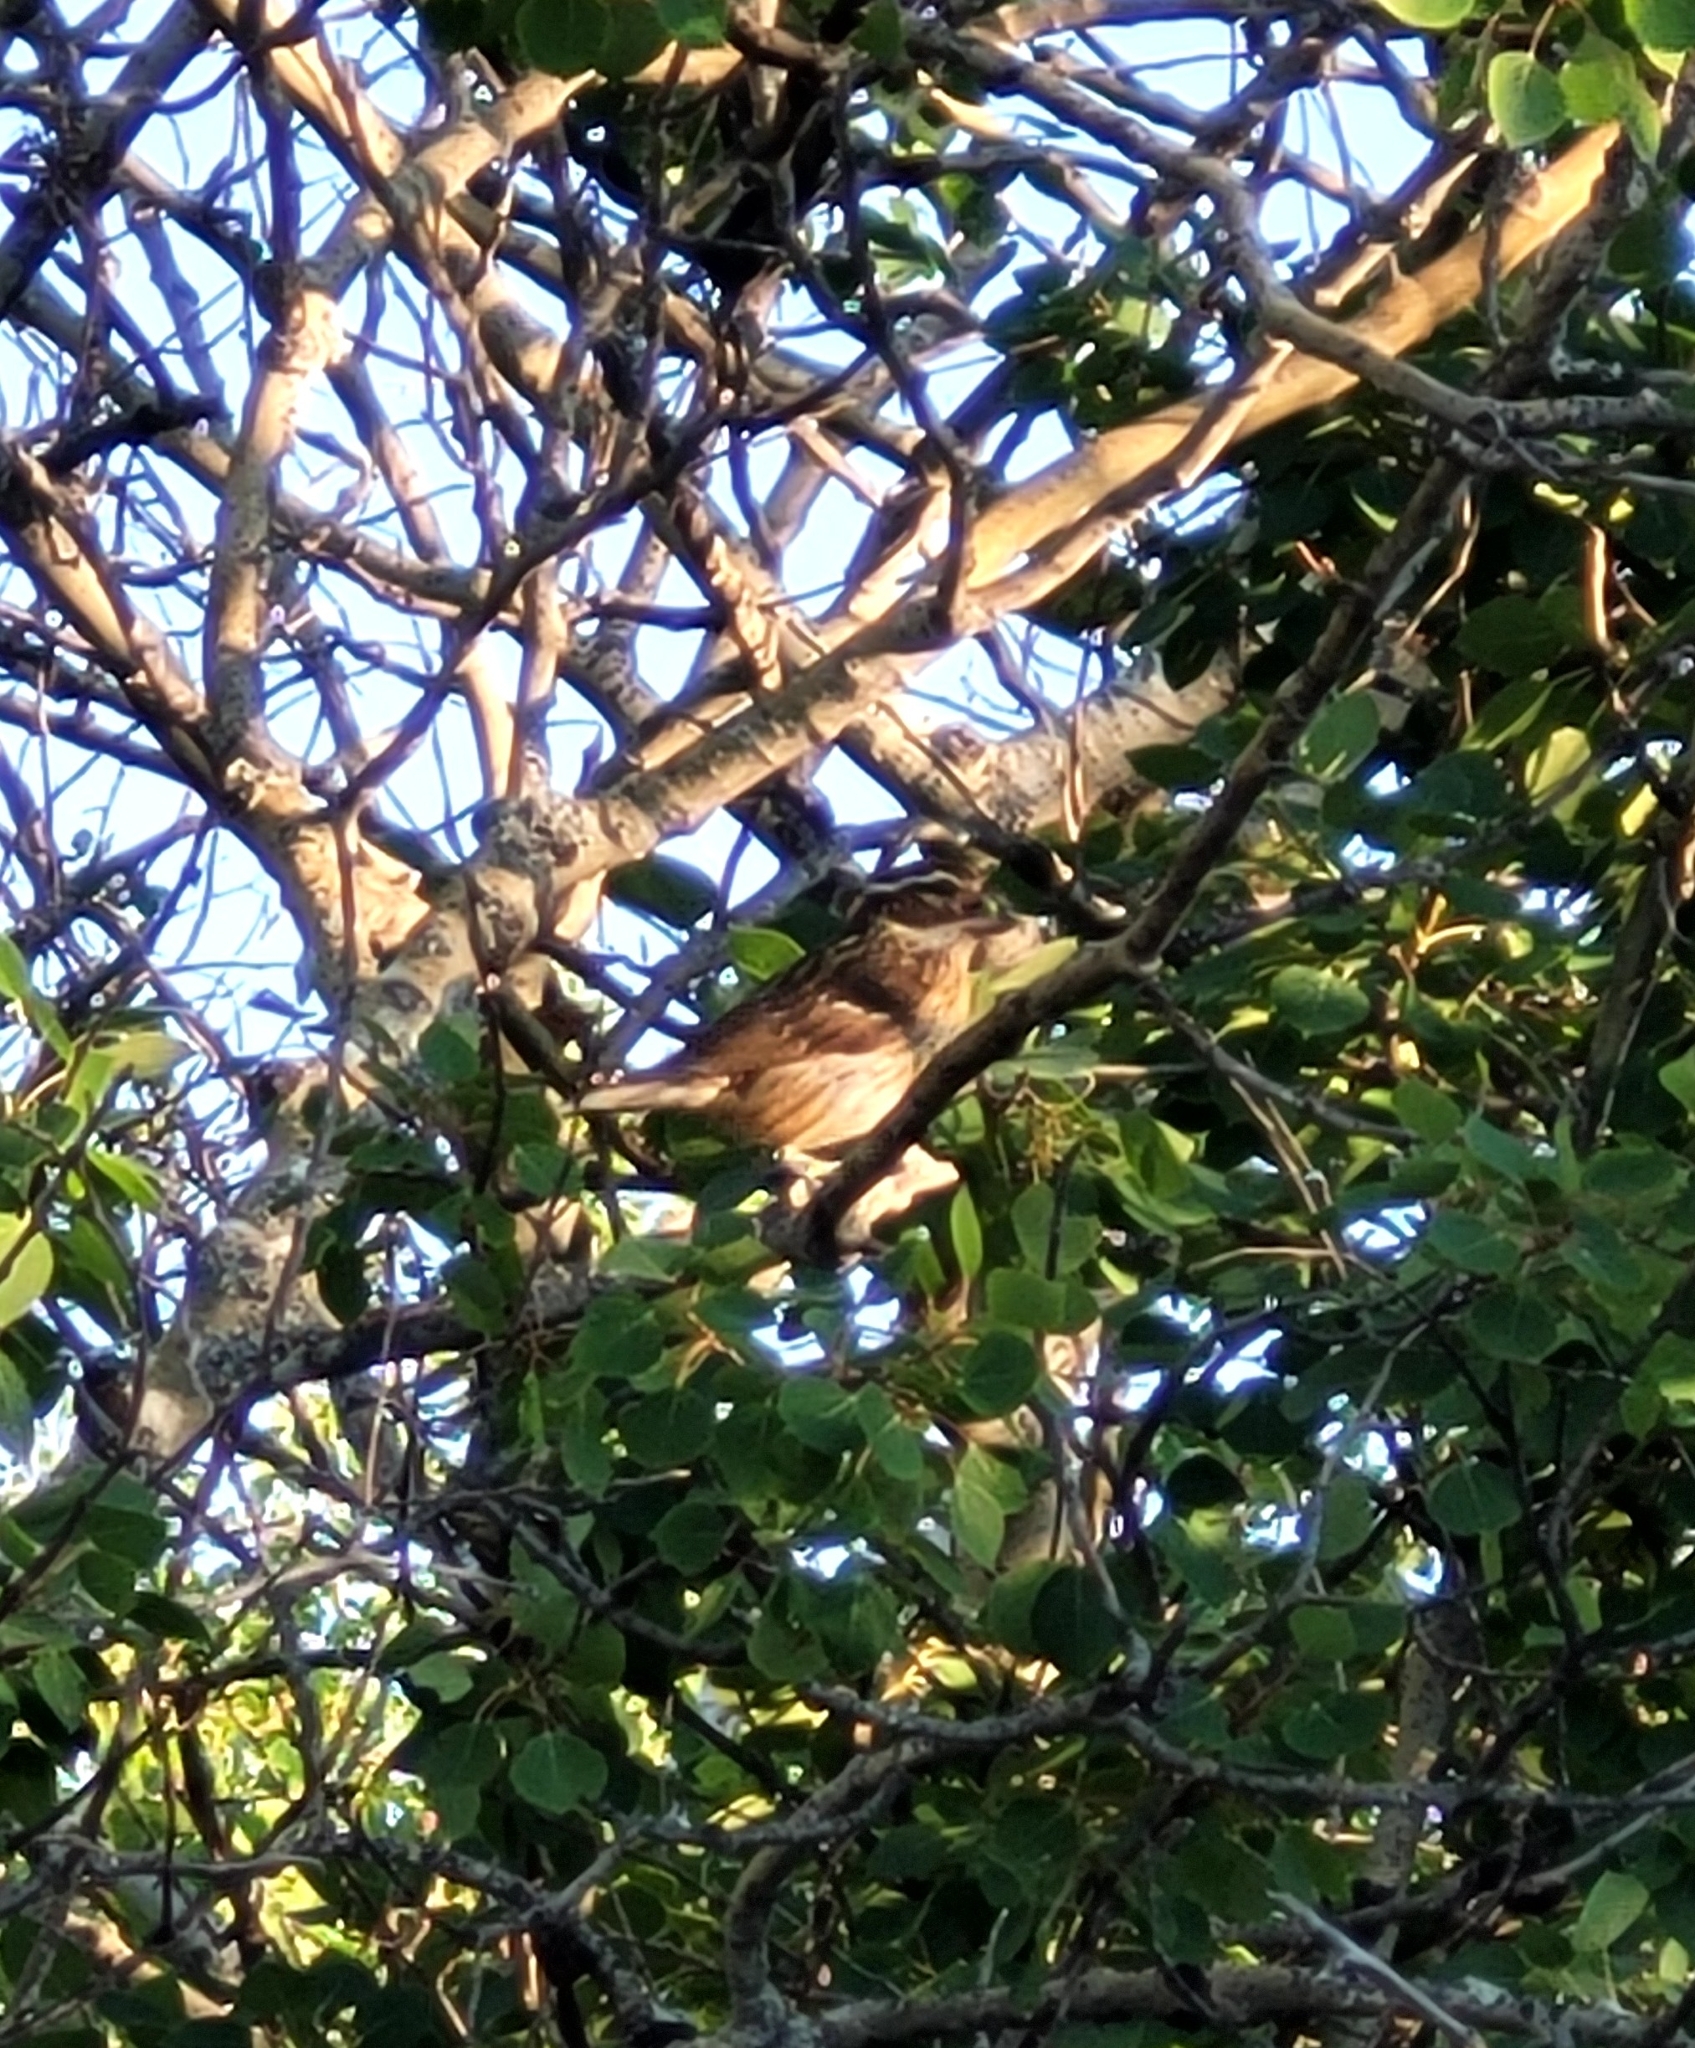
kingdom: Animalia
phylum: Chordata
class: Aves
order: Passeriformes
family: Cardinalidae
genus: Pheucticus
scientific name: Pheucticus ludovicianus
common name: Rose-breasted grosbeak
